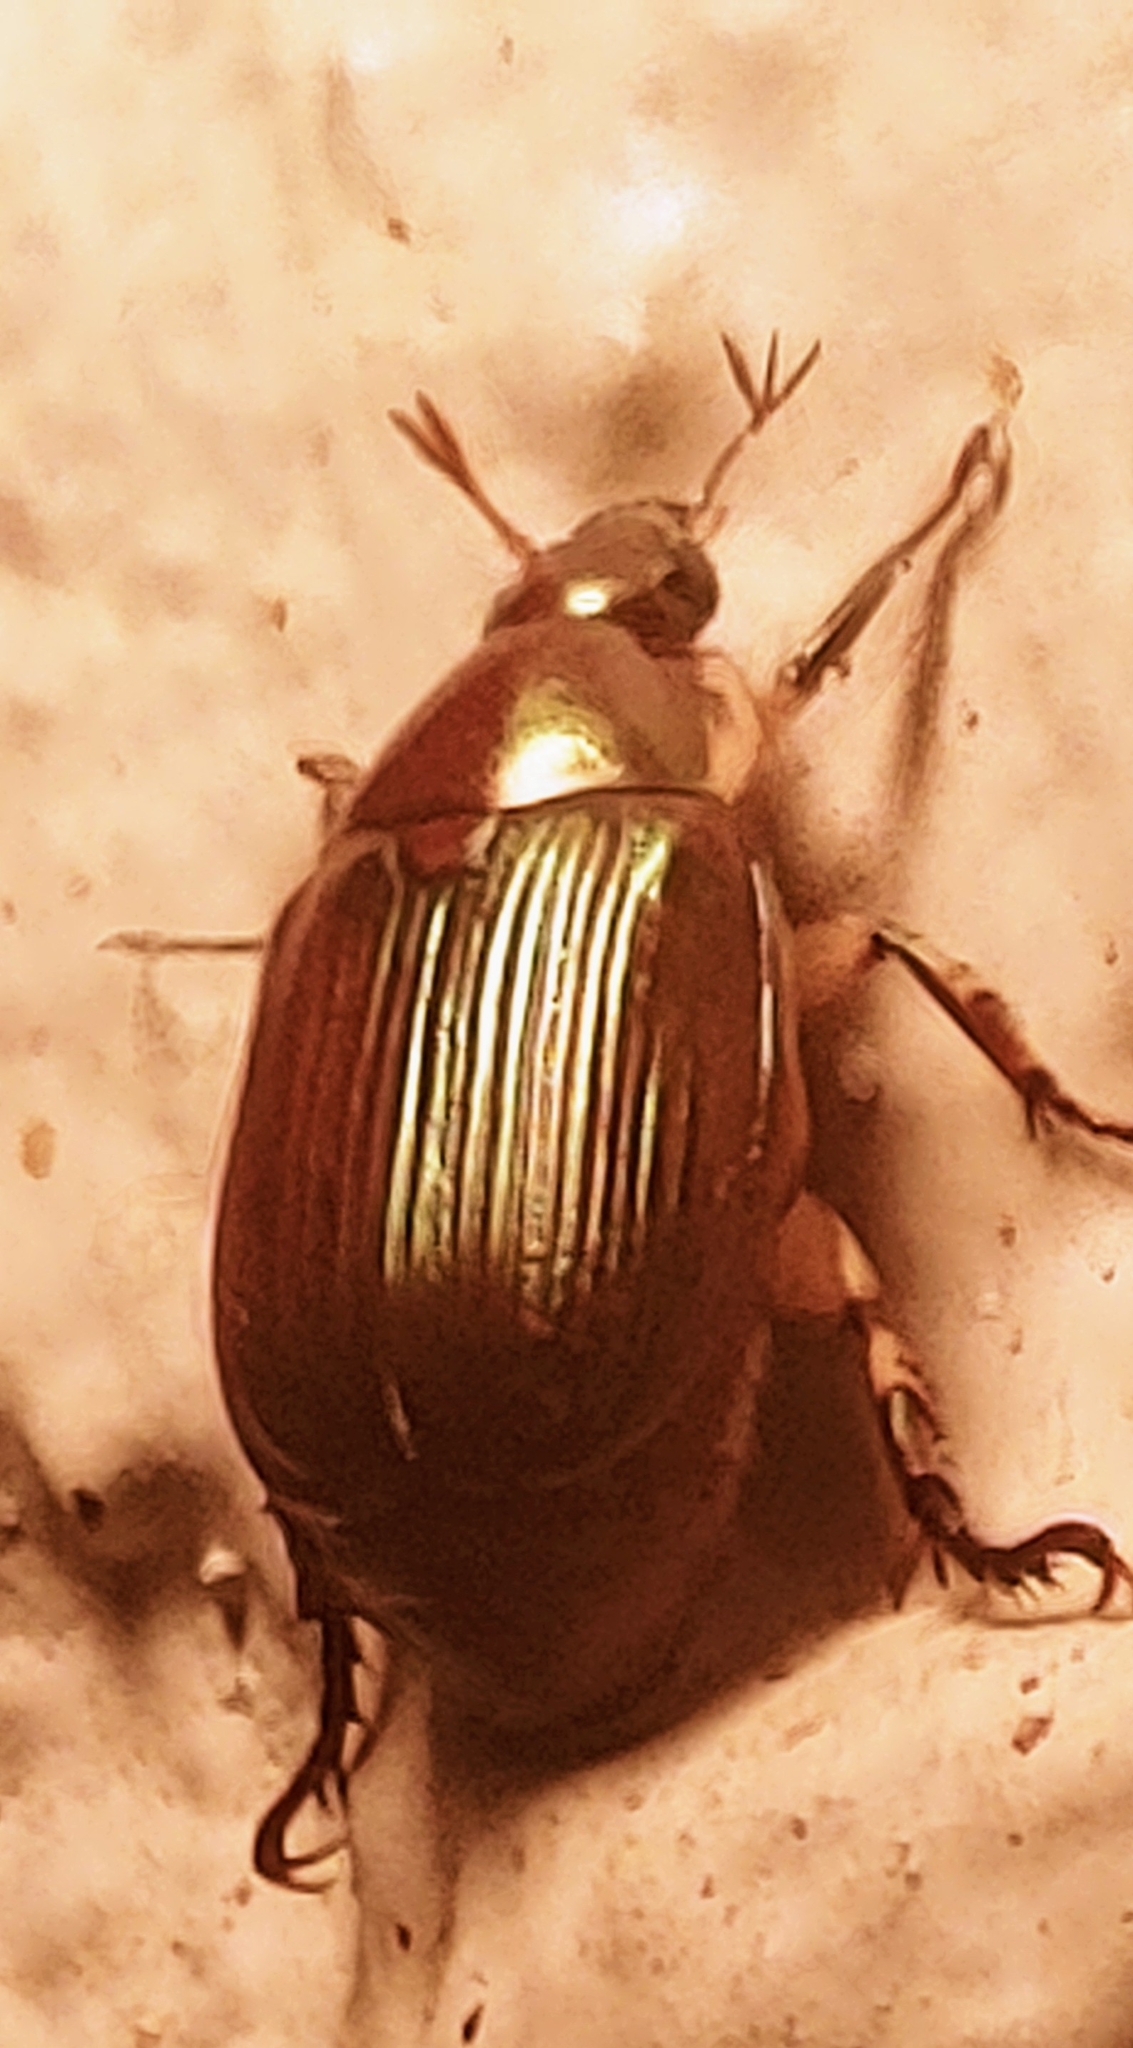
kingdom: Animalia
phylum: Arthropoda
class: Insecta
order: Coleoptera
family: Scarabaeidae
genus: Callistethus
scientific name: Callistethus marginatus
